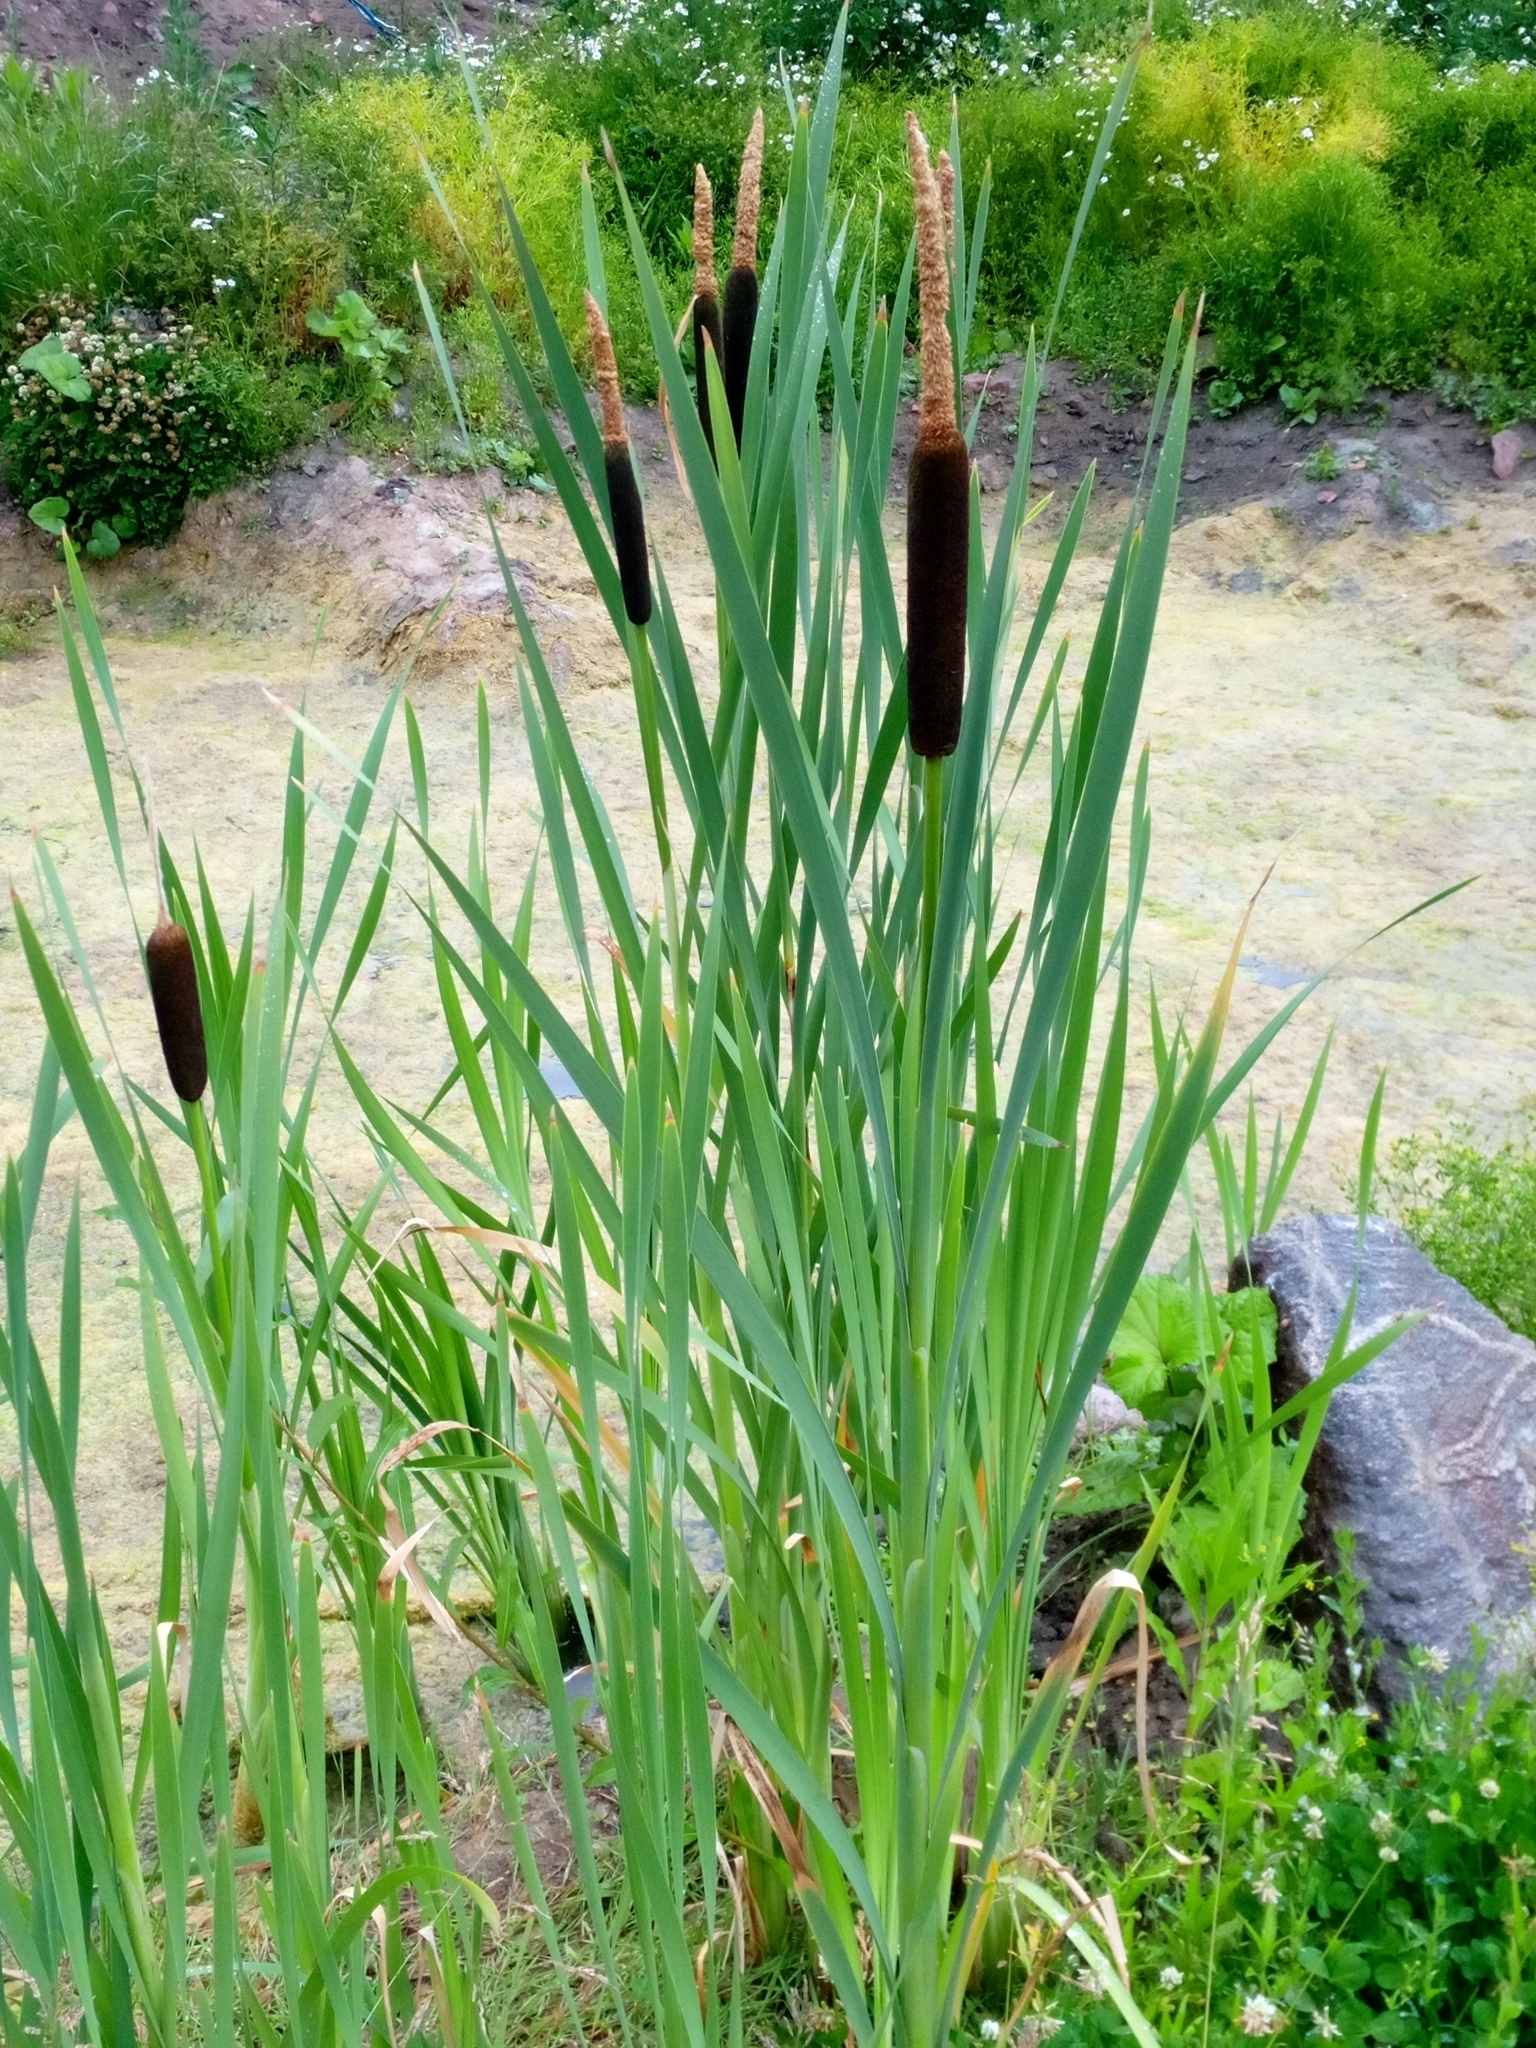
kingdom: Plantae
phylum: Tracheophyta
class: Liliopsida
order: Poales
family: Typhaceae
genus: Typha
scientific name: Typha latifolia
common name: Broadleaf cattail
